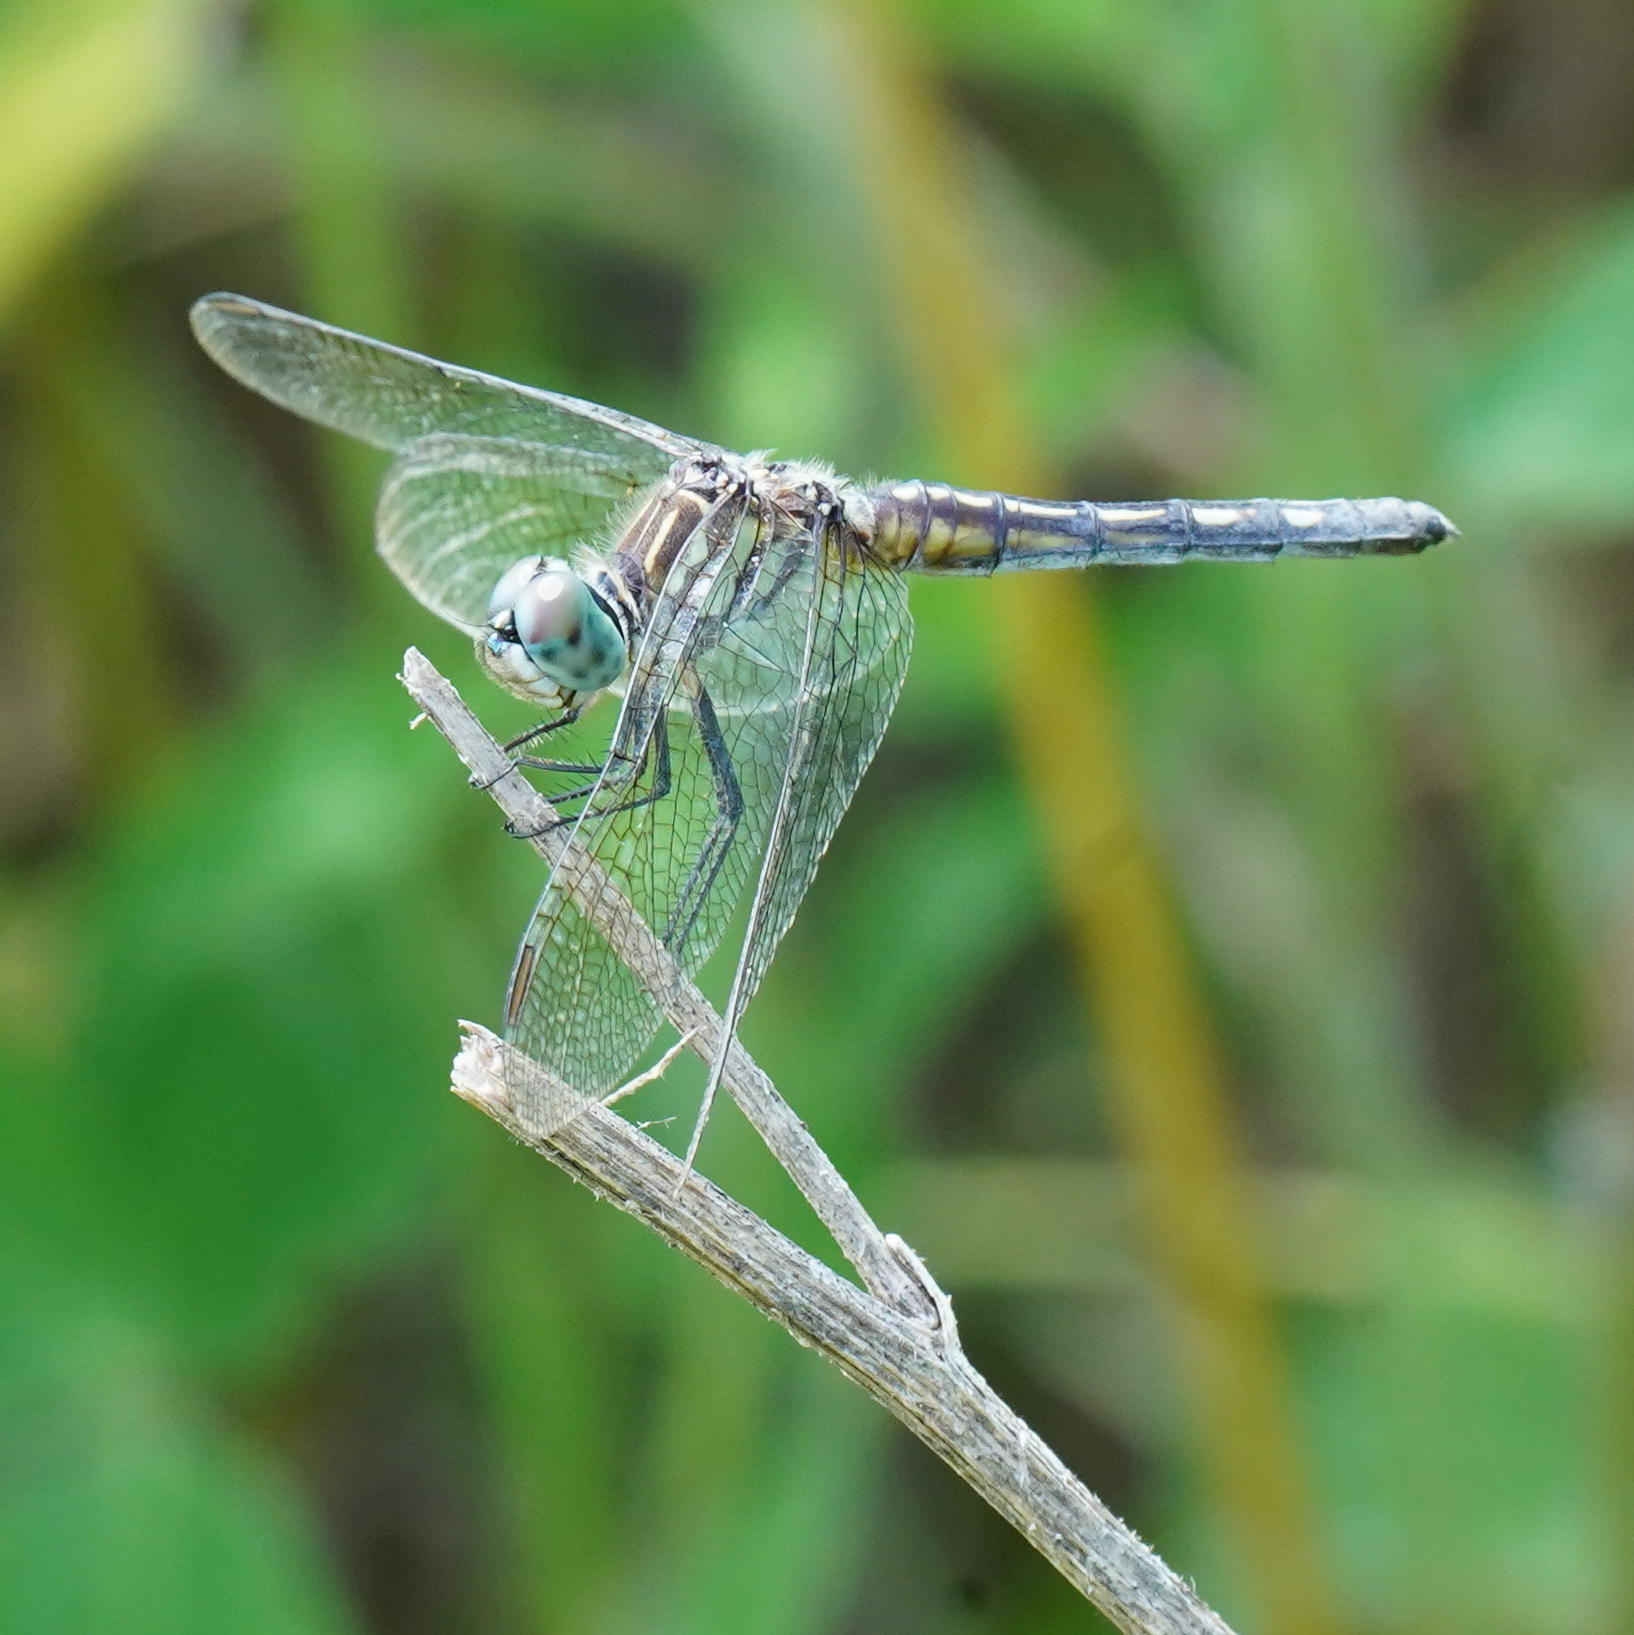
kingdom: Animalia
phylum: Arthropoda
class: Insecta
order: Odonata
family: Libellulidae
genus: Pachydiplax
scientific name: Pachydiplax longipennis
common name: Blue dasher
